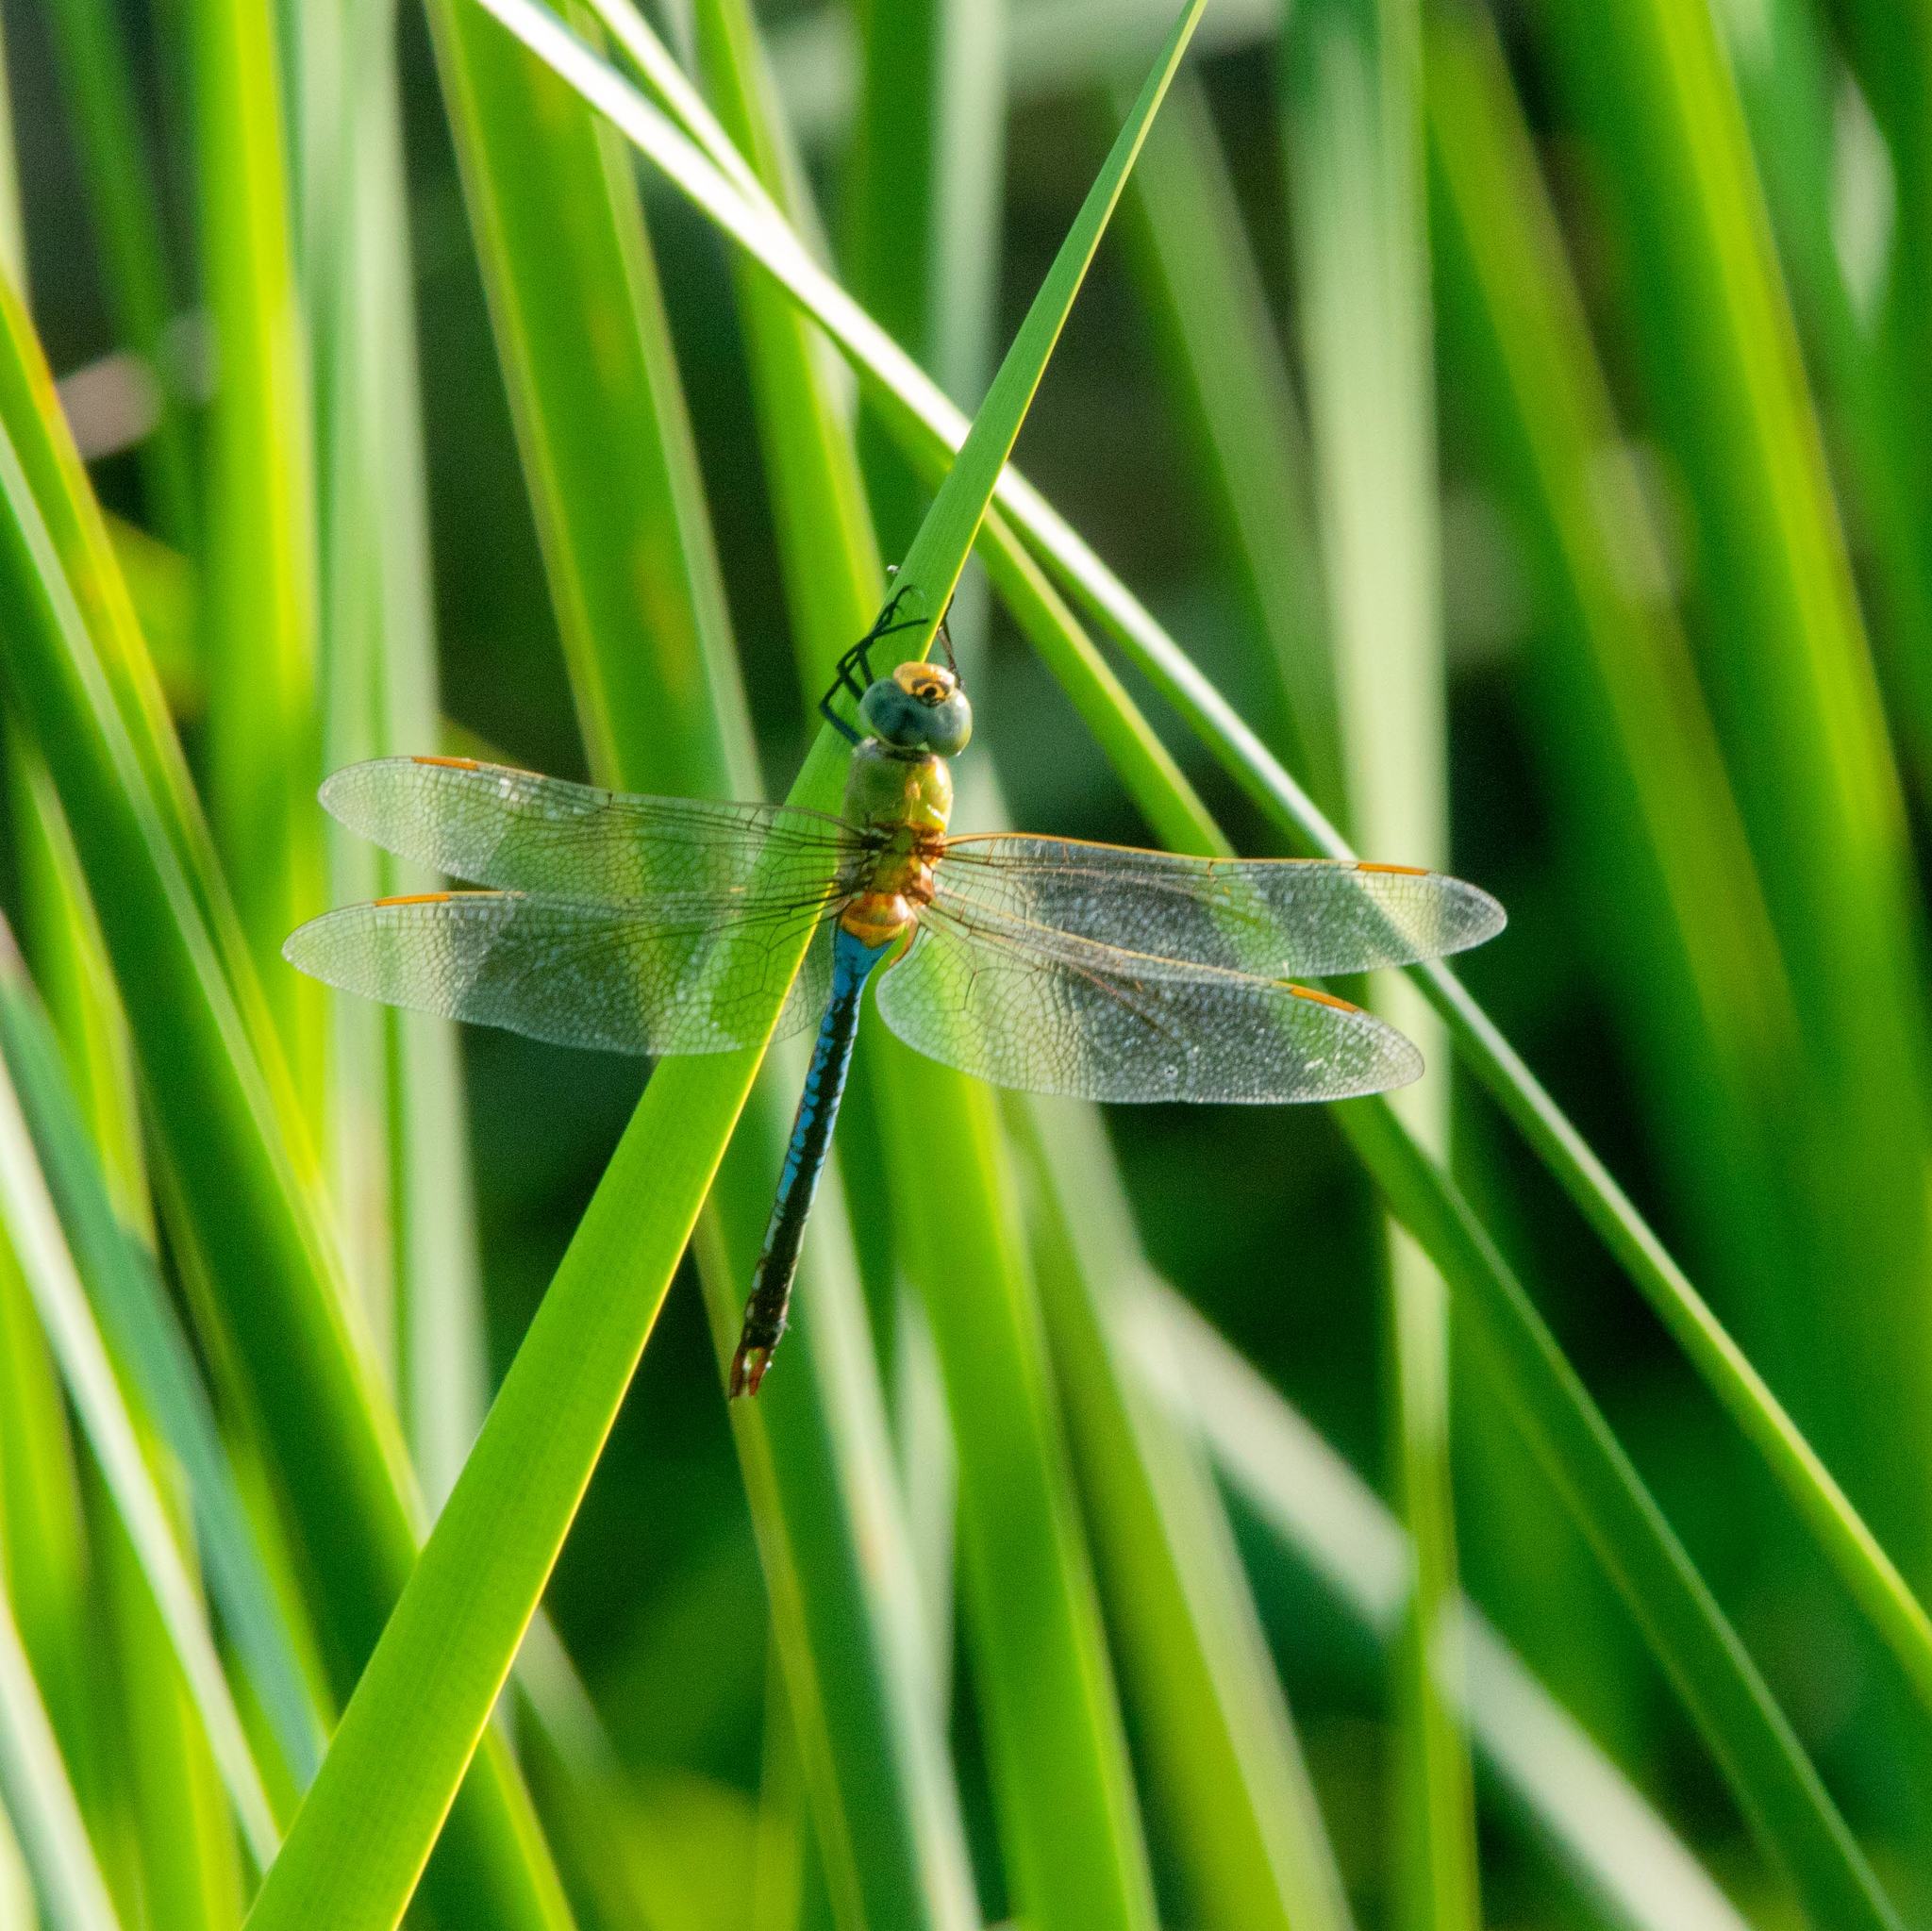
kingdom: Animalia
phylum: Arthropoda
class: Insecta
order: Odonata
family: Aeshnidae
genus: Anax
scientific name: Anax junius
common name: Common green darner
